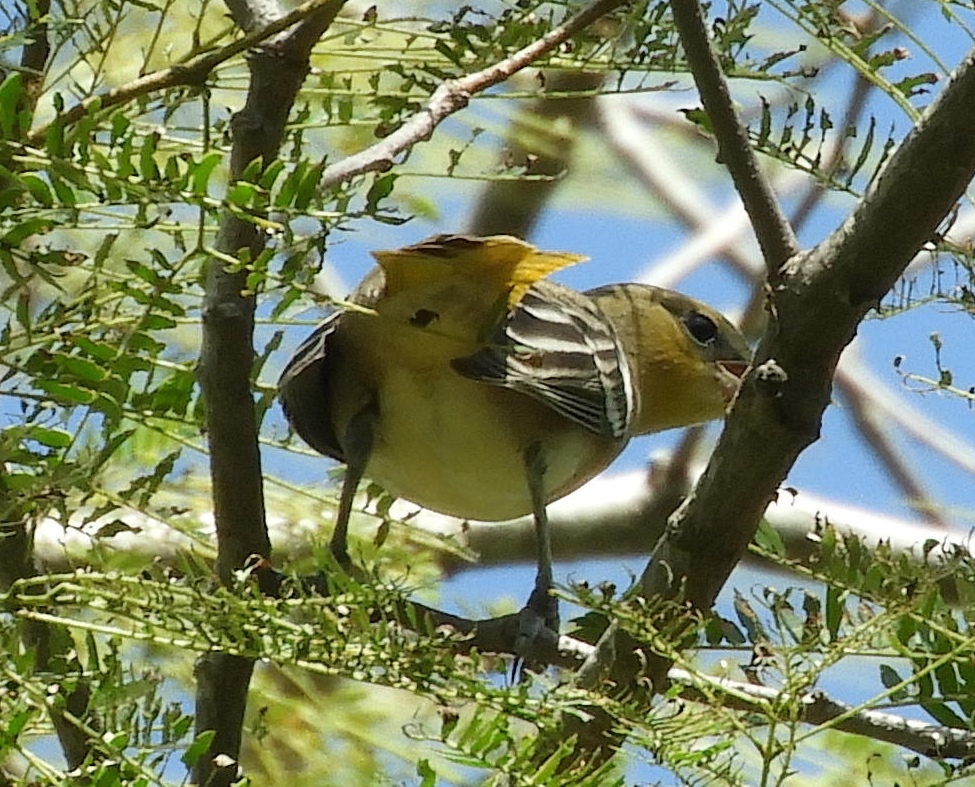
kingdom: Animalia
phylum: Chordata
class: Aves
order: Passeriformes
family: Icteridae
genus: Icterus
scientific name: Icterus
